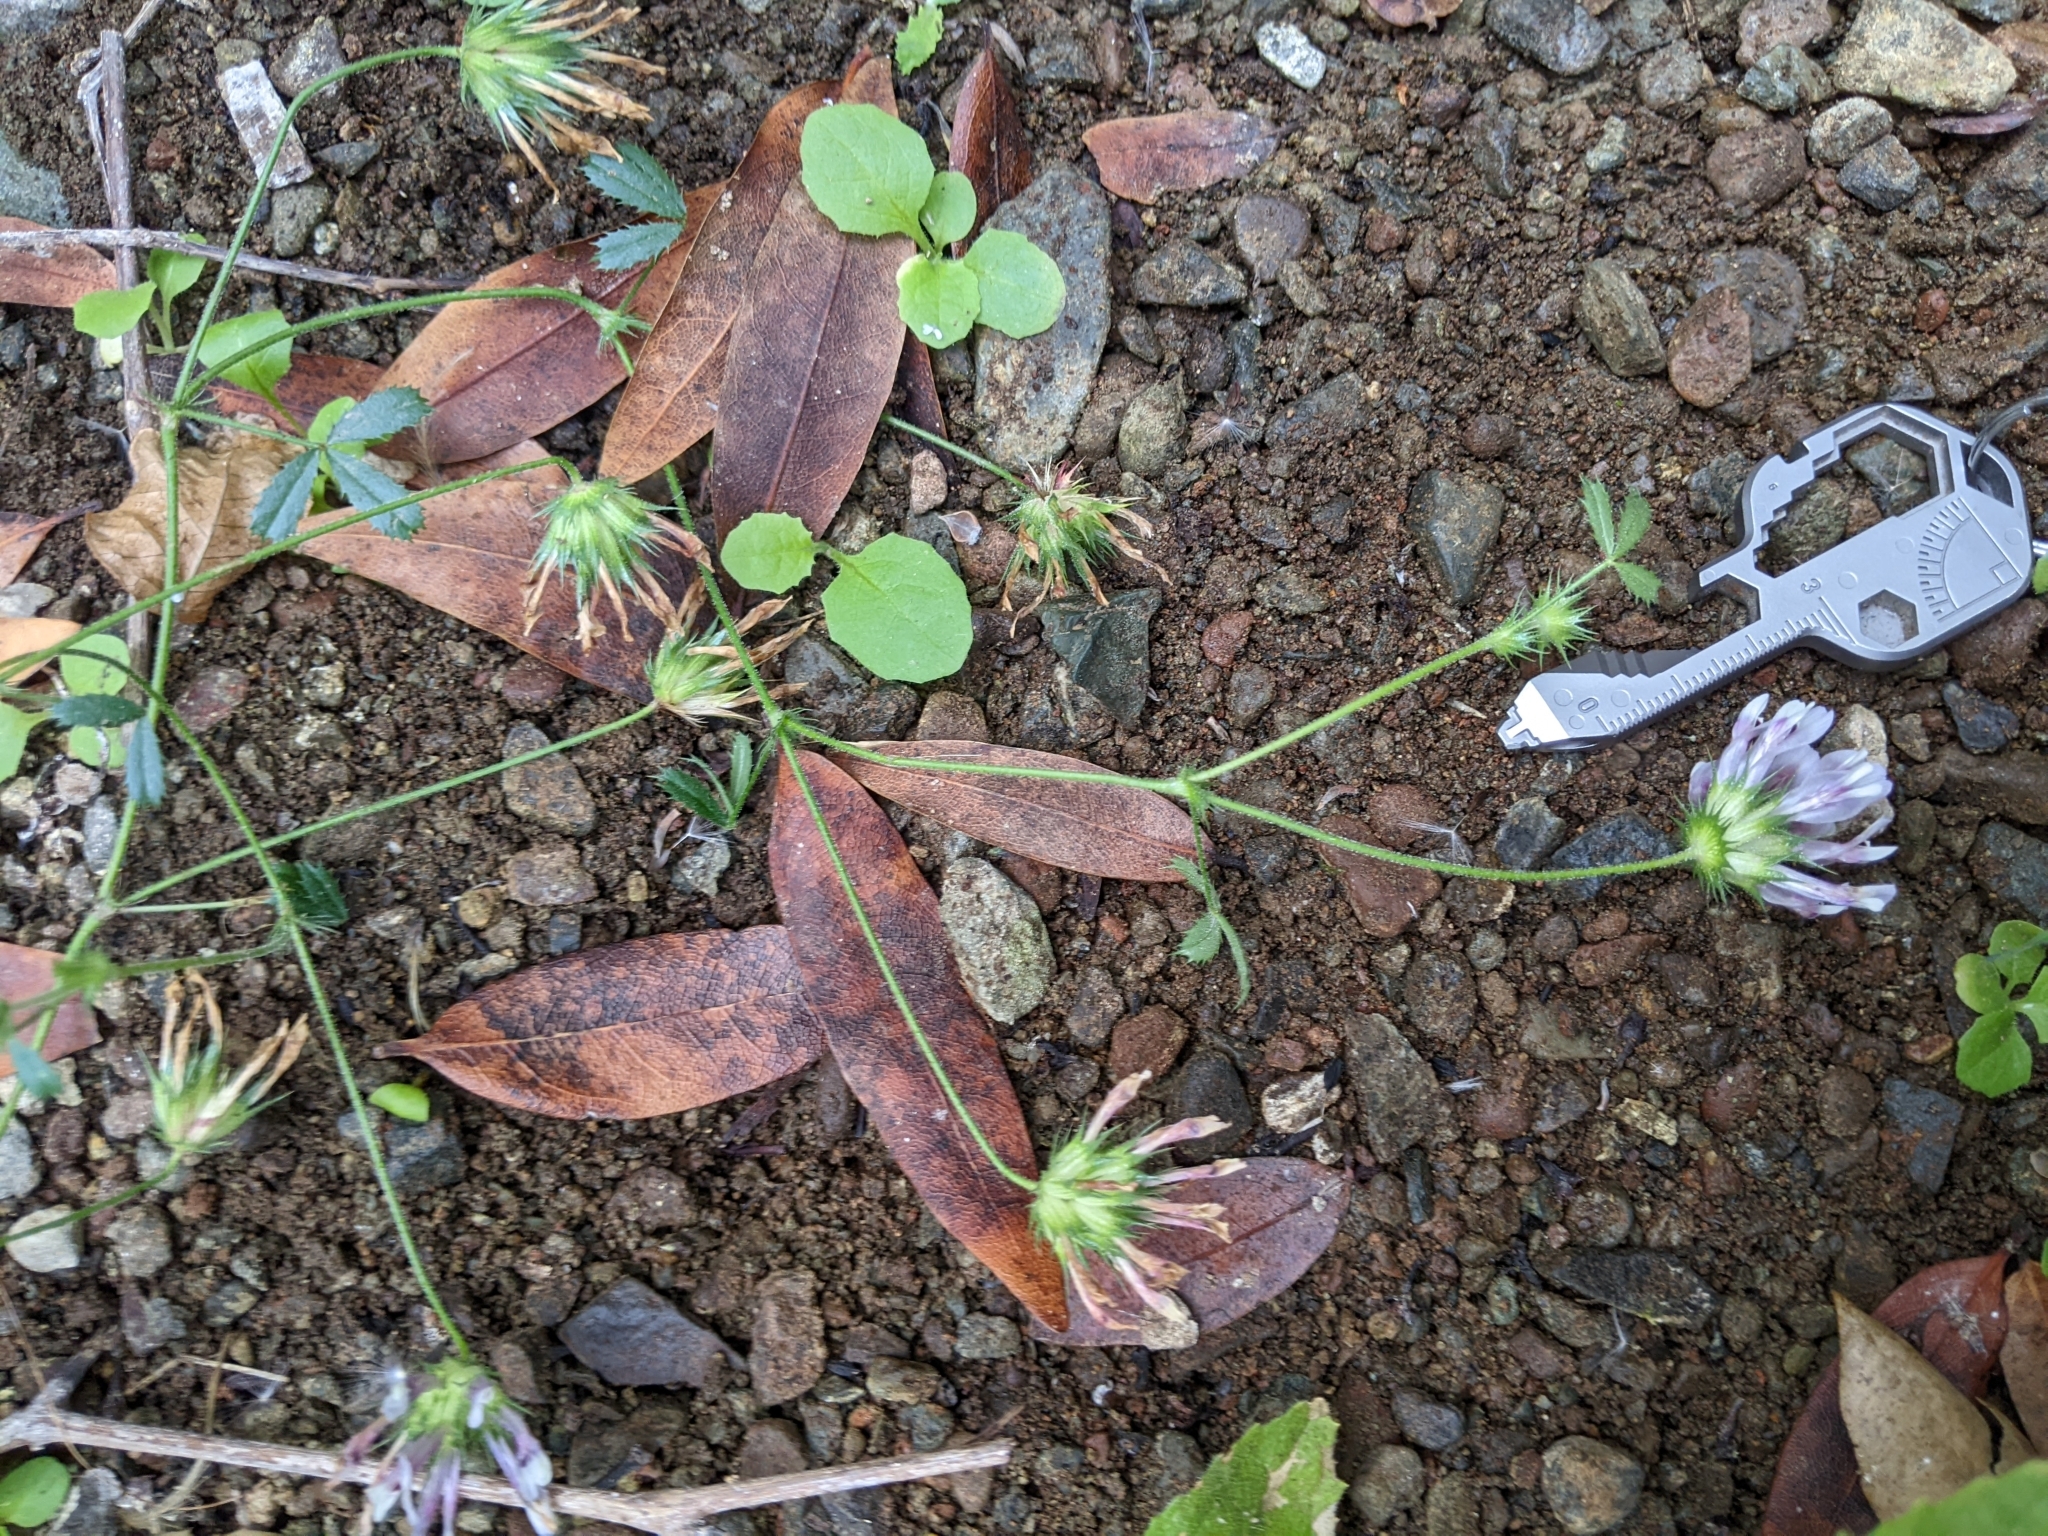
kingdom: Plantae
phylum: Tracheophyta
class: Magnoliopsida
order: Fabales
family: Fabaceae
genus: Trifolium
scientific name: Trifolium obtusiflorum
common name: Clammy clover
